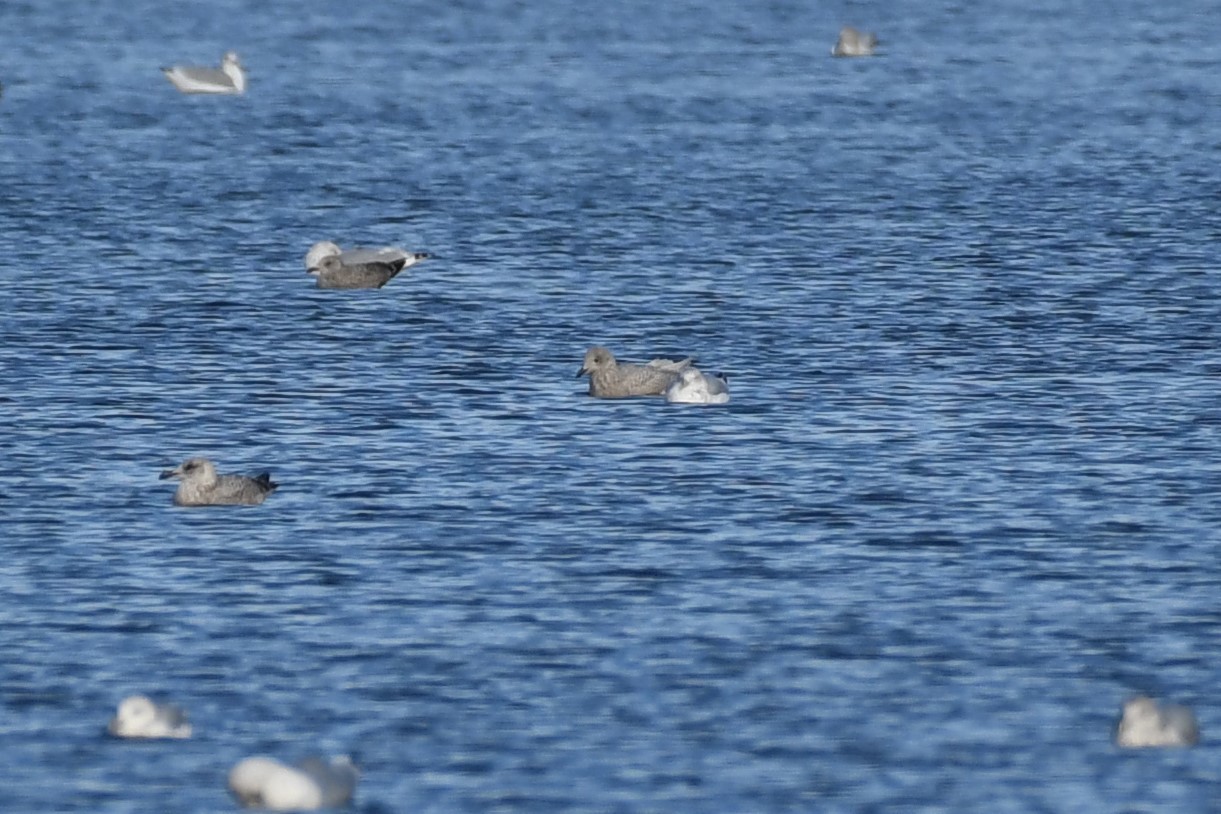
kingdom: Animalia
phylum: Chordata
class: Aves
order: Charadriiformes
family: Laridae
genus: Larus
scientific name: Larus glaucoides
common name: Iceland gull
